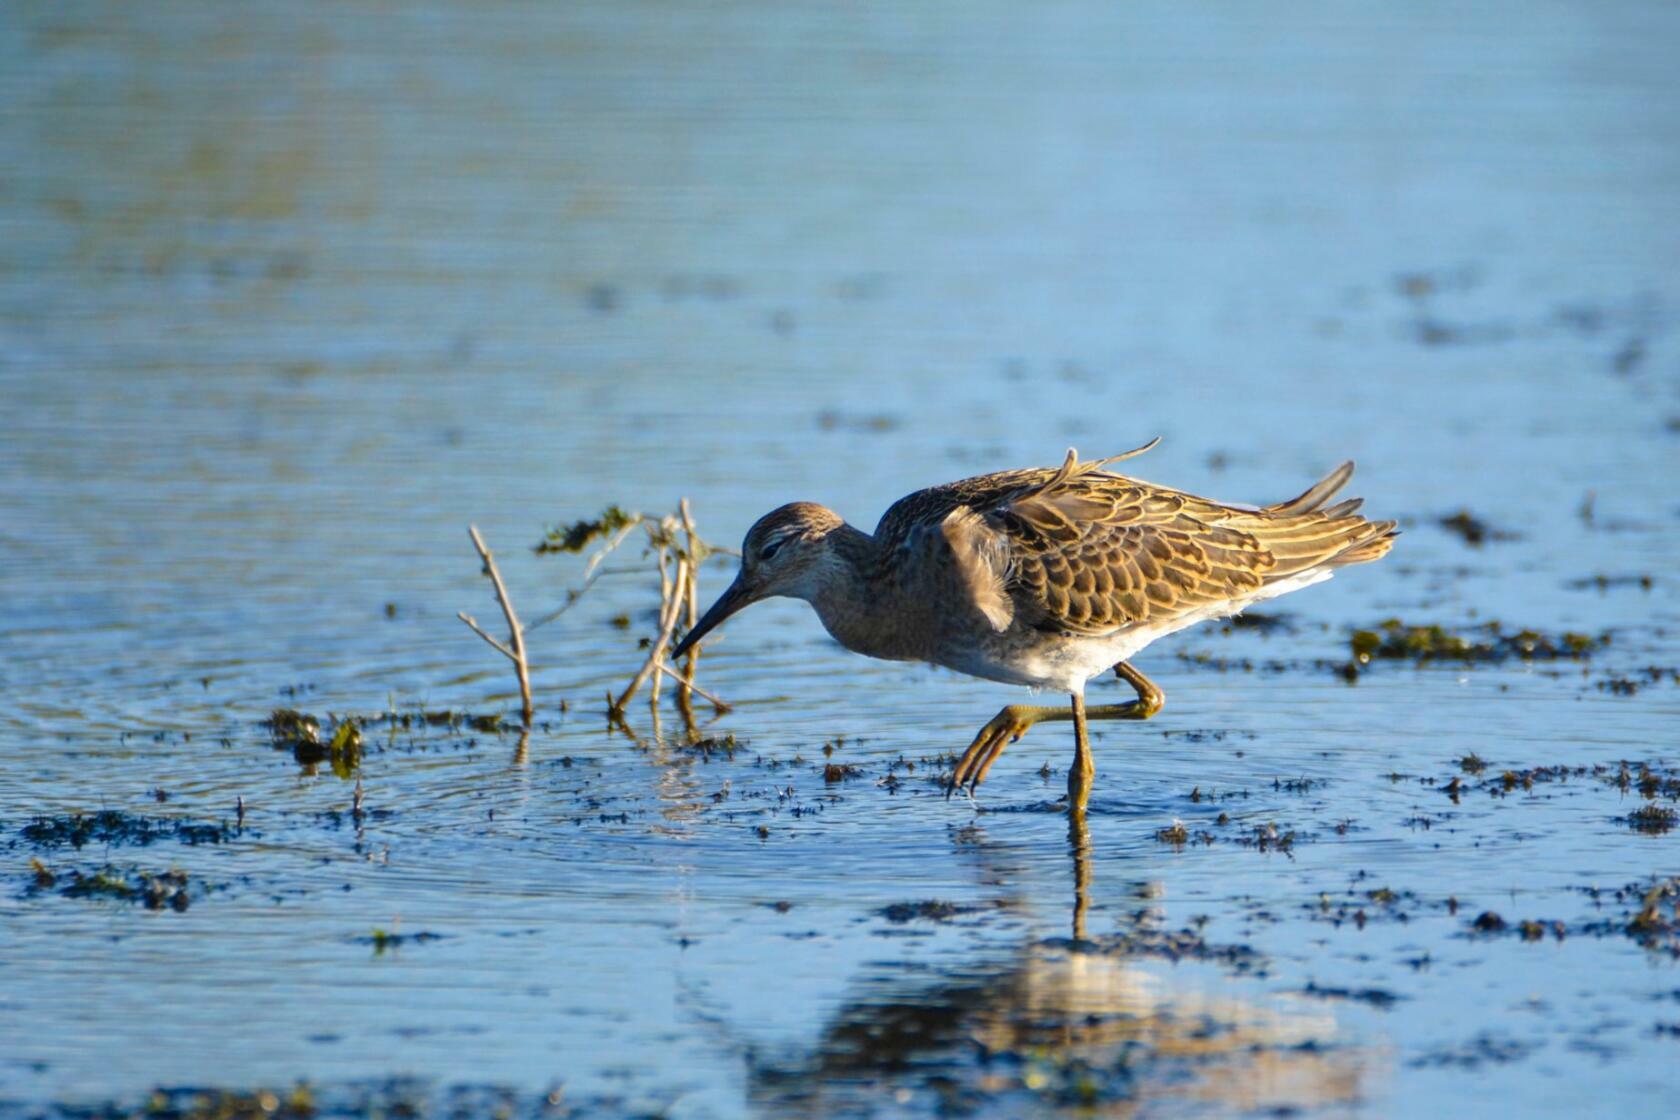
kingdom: Animalia
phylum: Chordata
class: Aves
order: Charadriiformes
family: Scolopacidae
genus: Calidris
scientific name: Calidris pugnax
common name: Ruff
